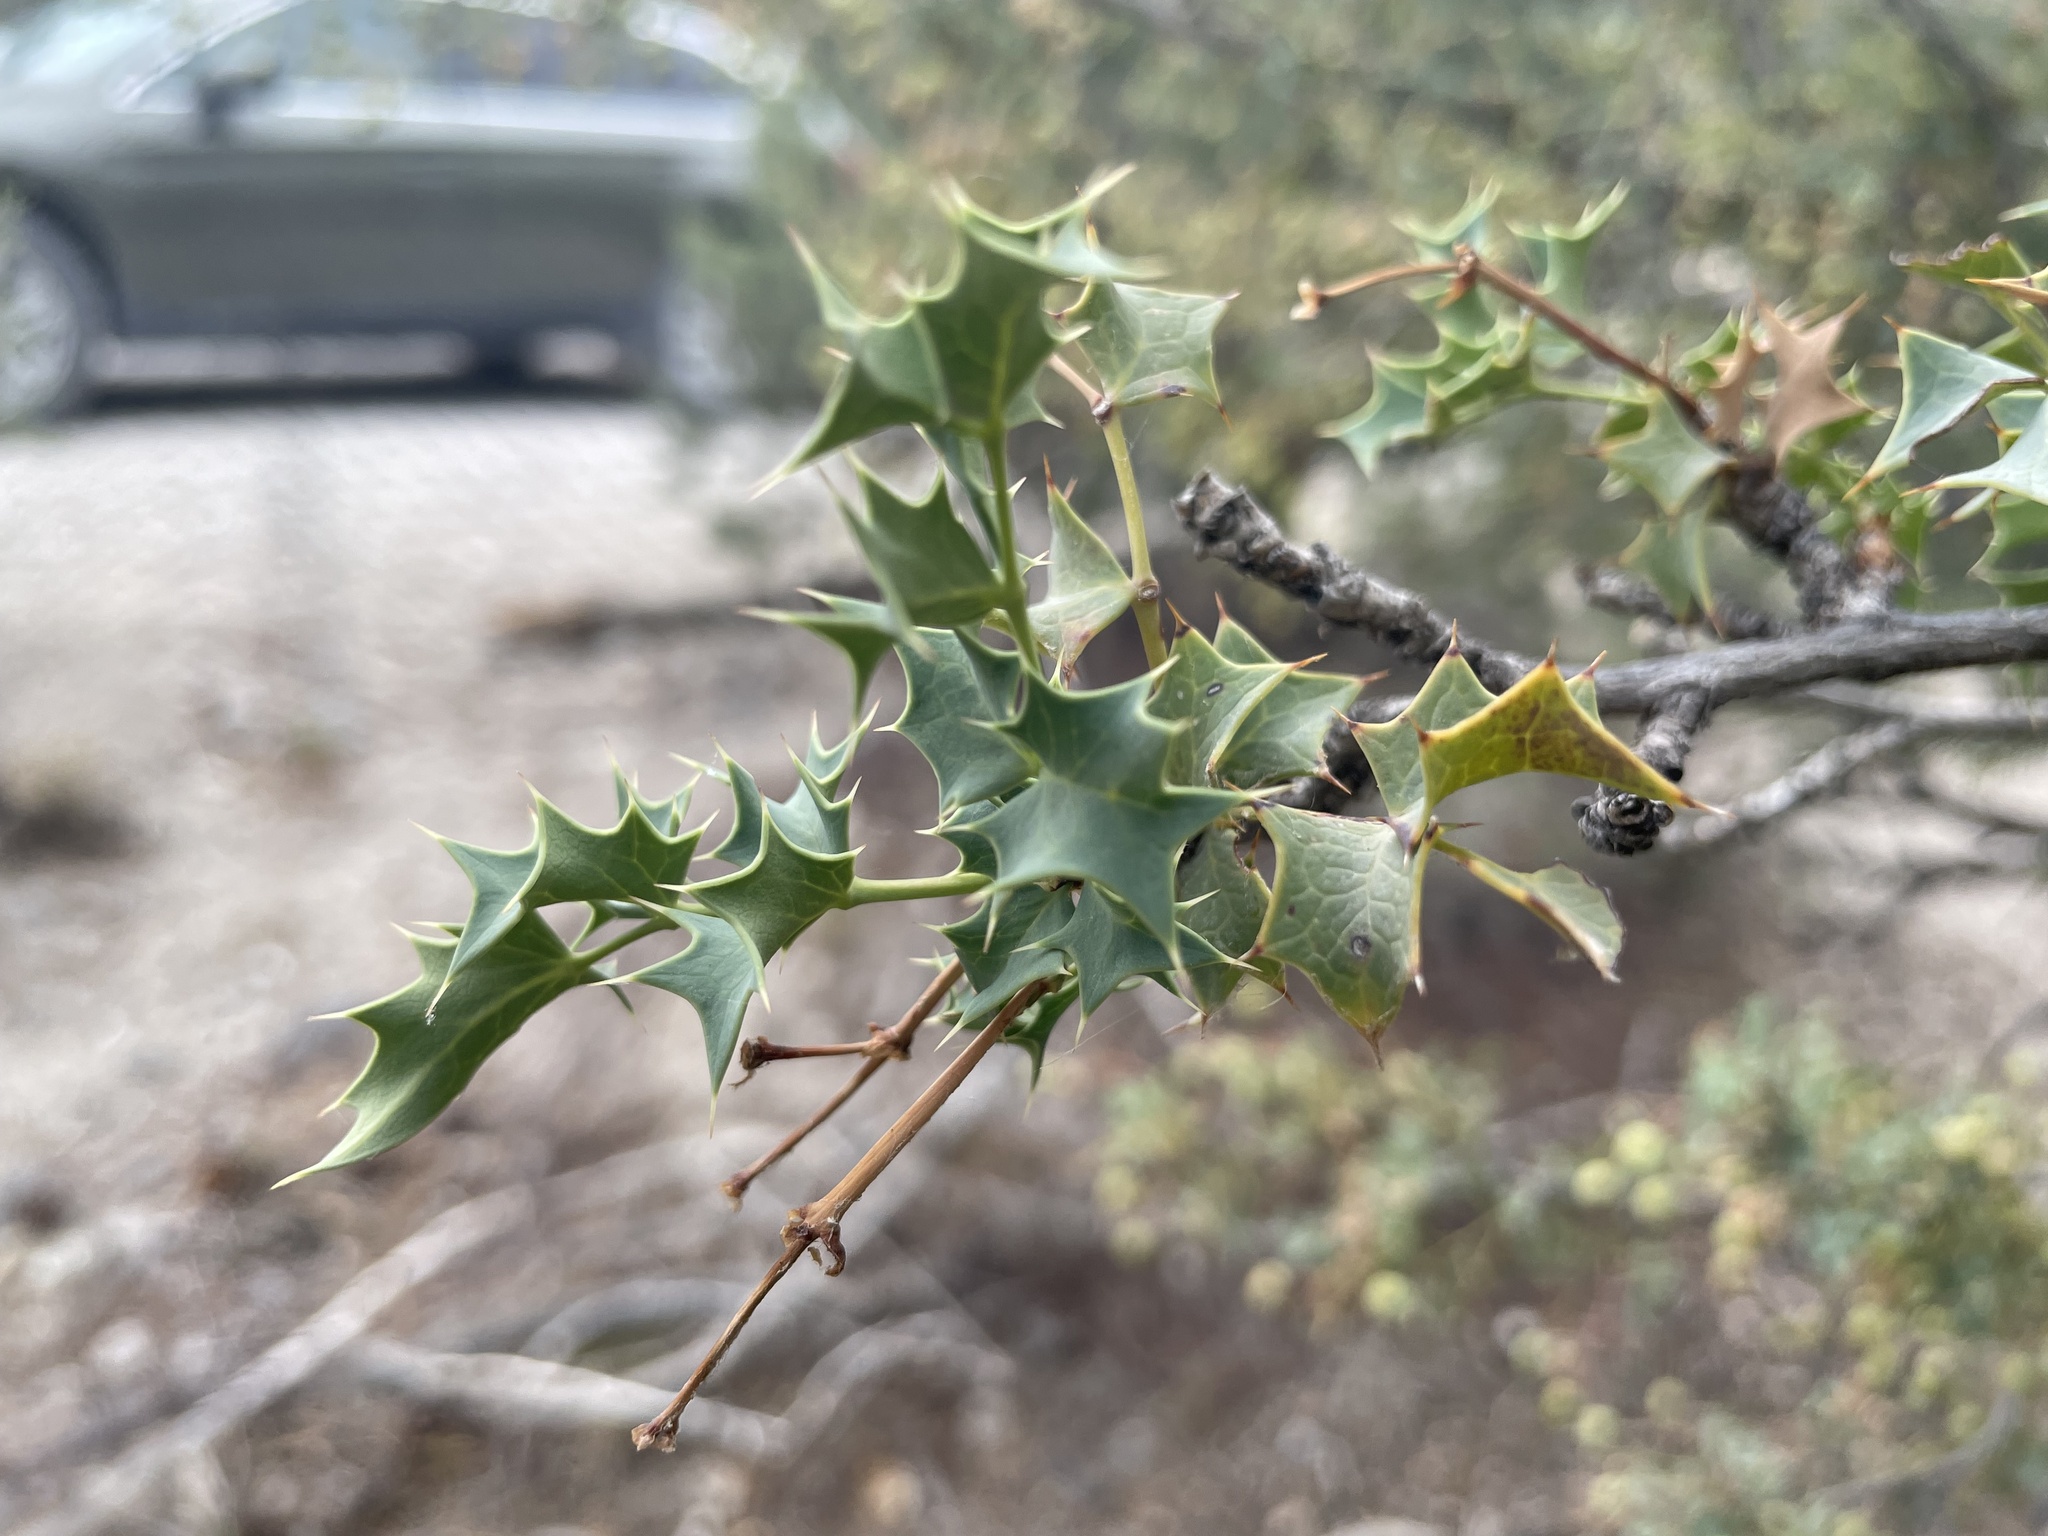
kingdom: Plantae
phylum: Tracheophyta
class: Magnoliopsida
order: Ranunculales
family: Berberidaceae
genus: Alloberberis
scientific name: Alloberberis fremontii
